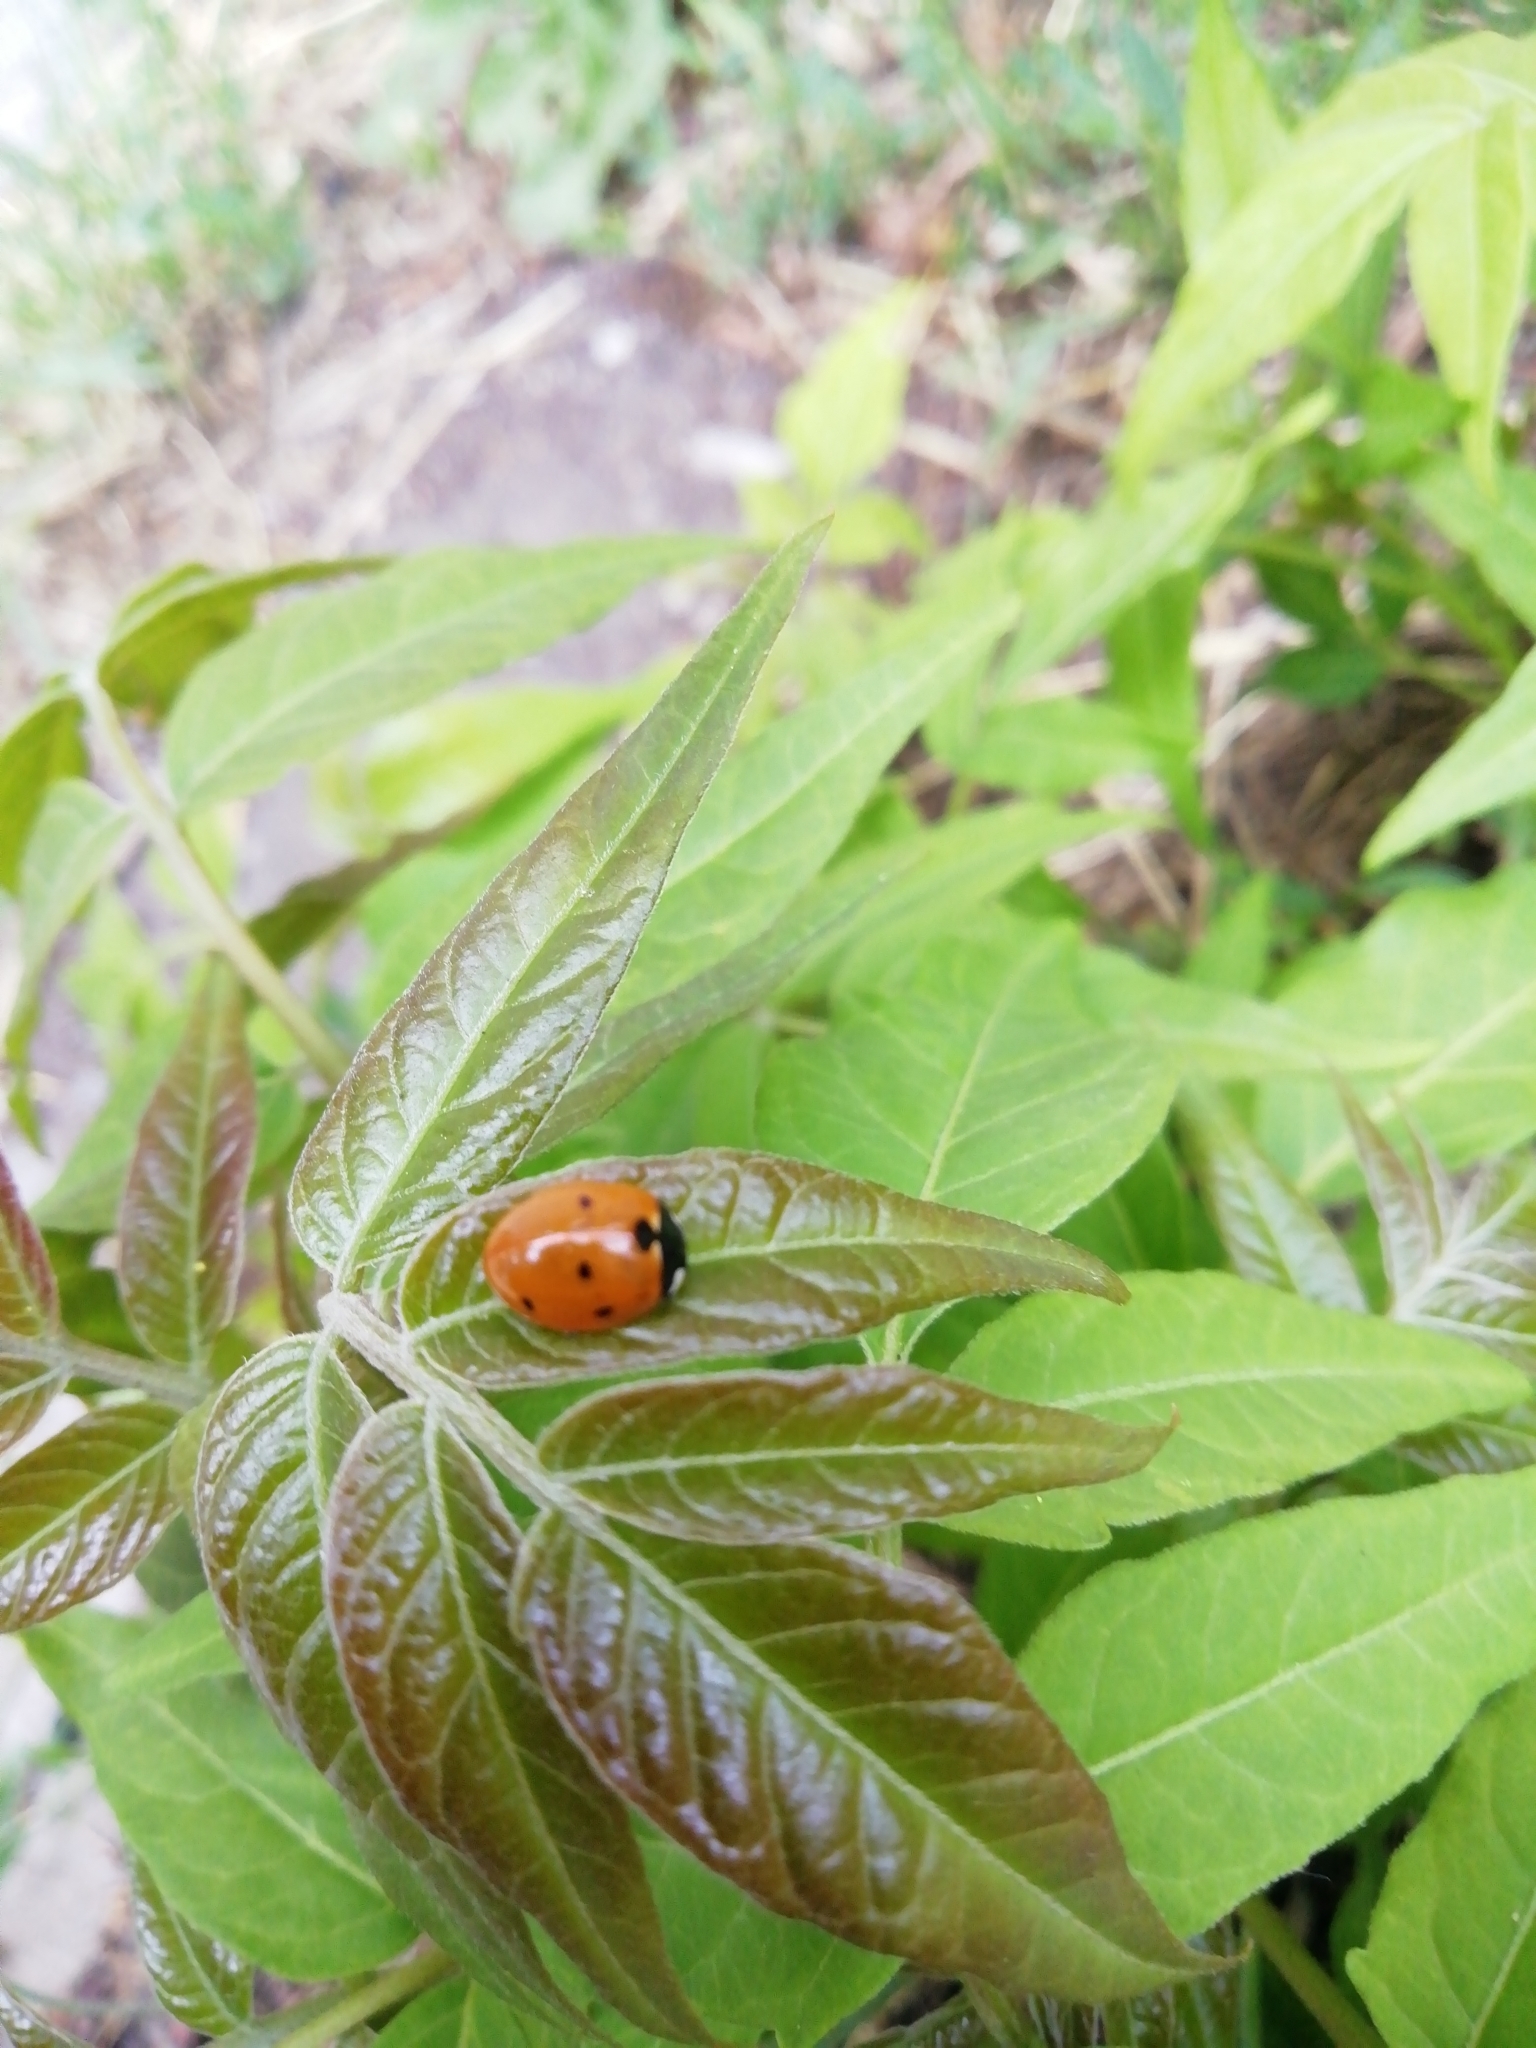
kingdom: Animalia
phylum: Arthropoda
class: Insecta
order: Coleoptera
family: Coccinellidae
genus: Coccinella
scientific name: Coccinella septempunctata
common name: Sevenspotted lady beetle
